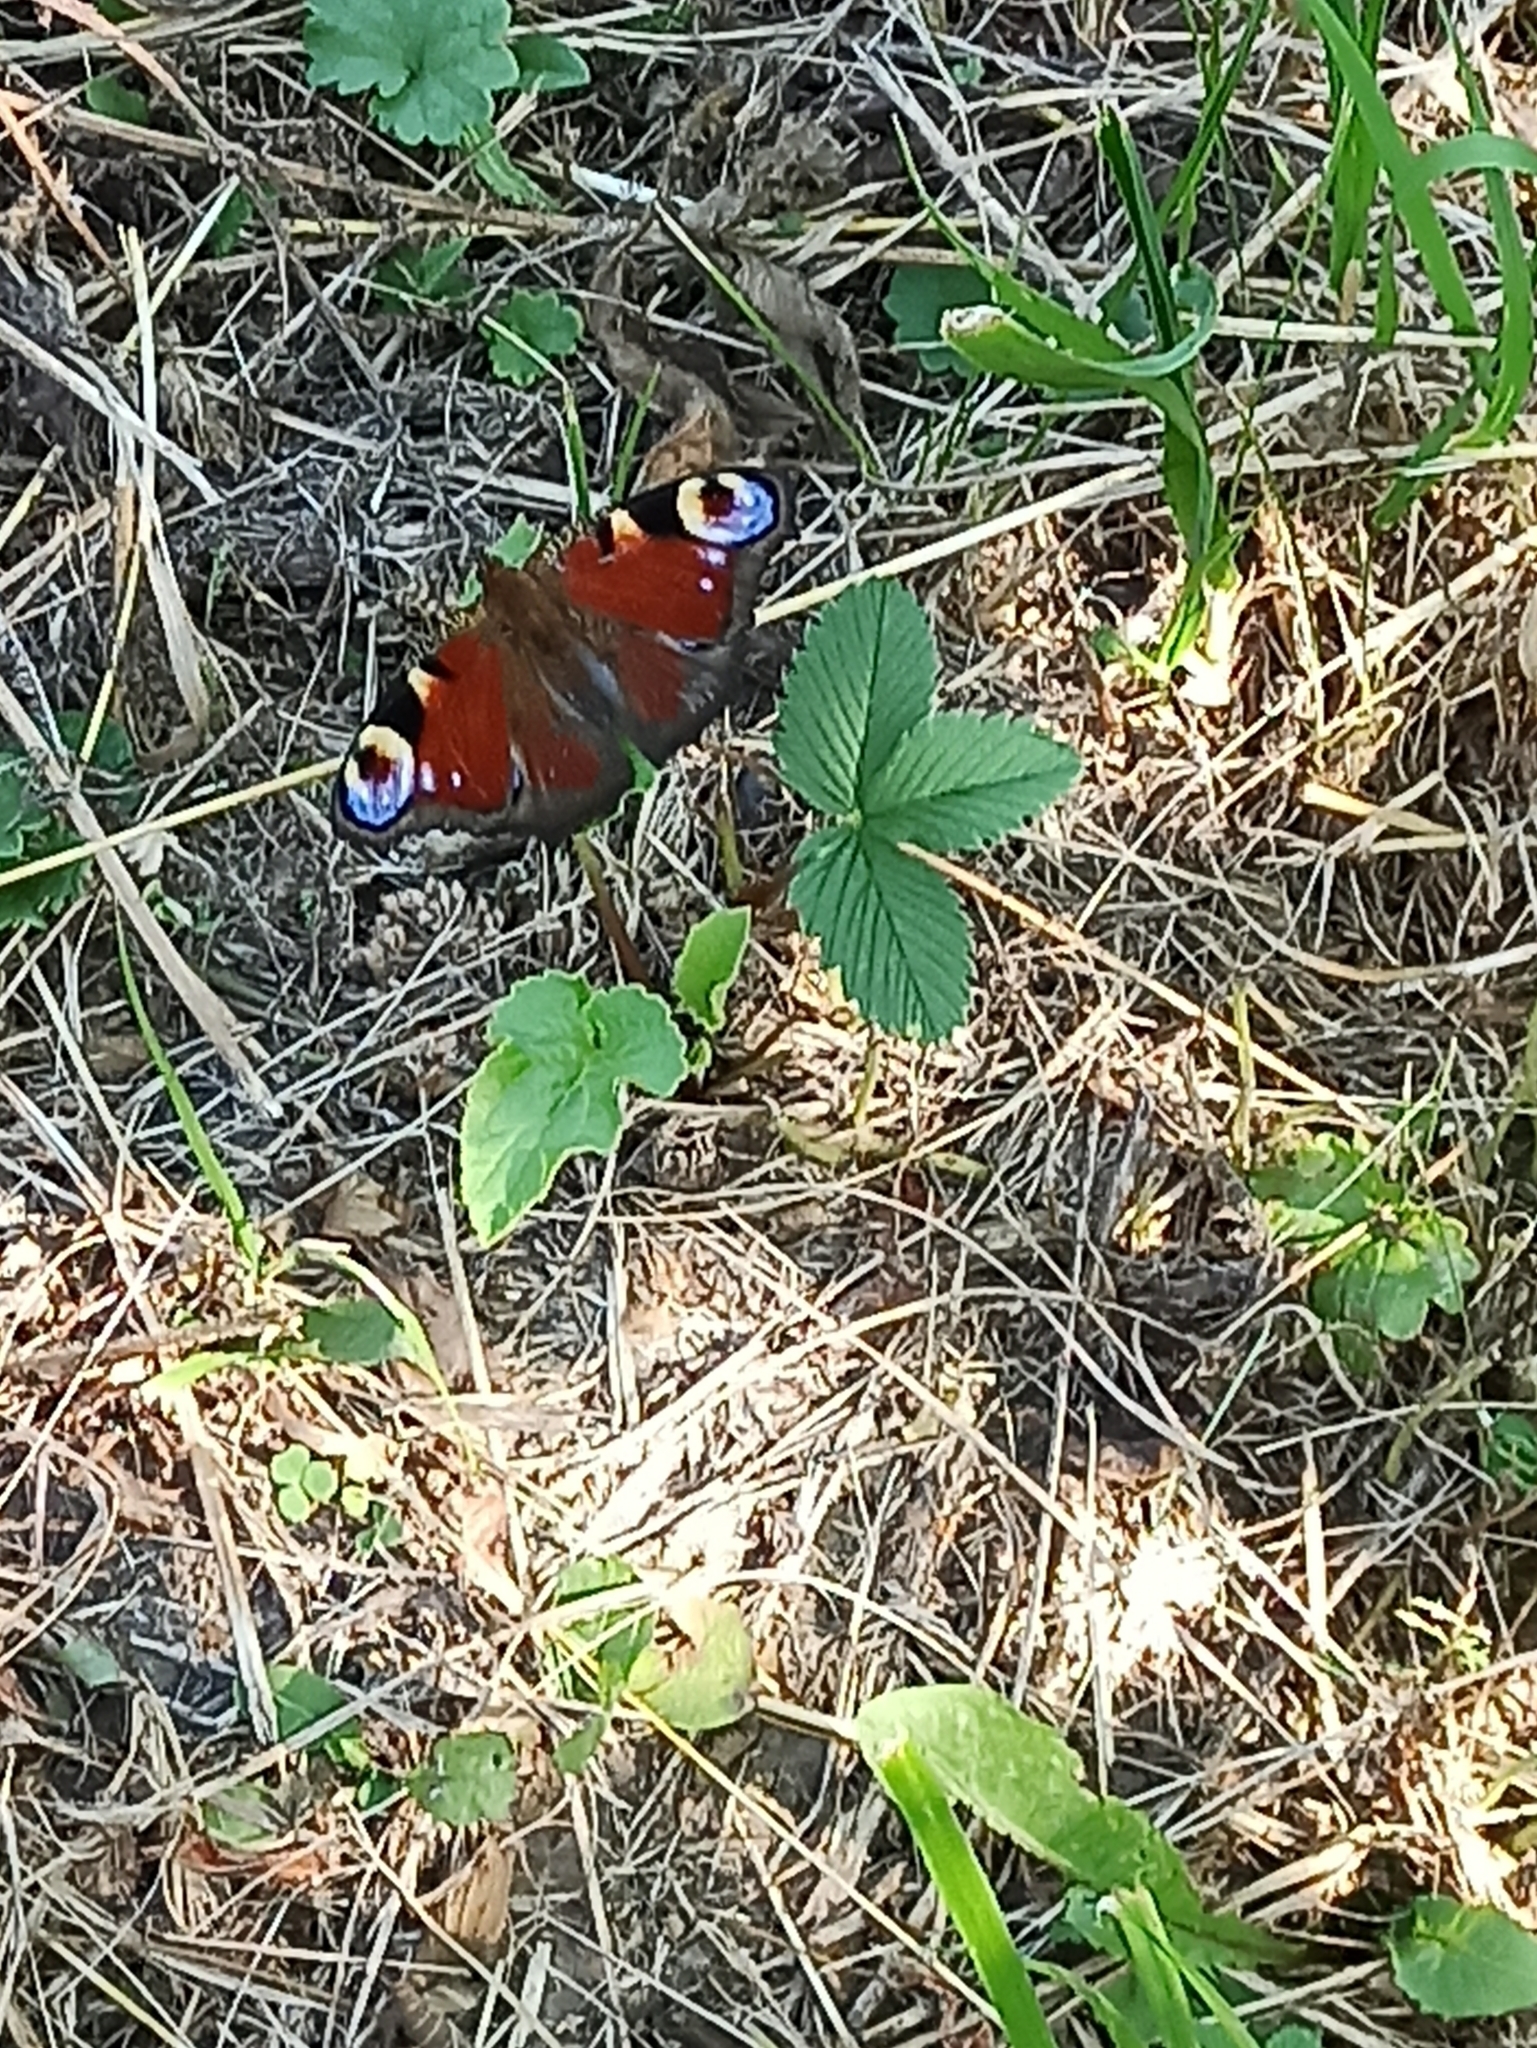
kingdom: Animalia
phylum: Arthropoda
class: Insecta
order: Lepidoptera
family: Nymphalidae
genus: Aglais
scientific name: Aglais io
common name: Peacock
